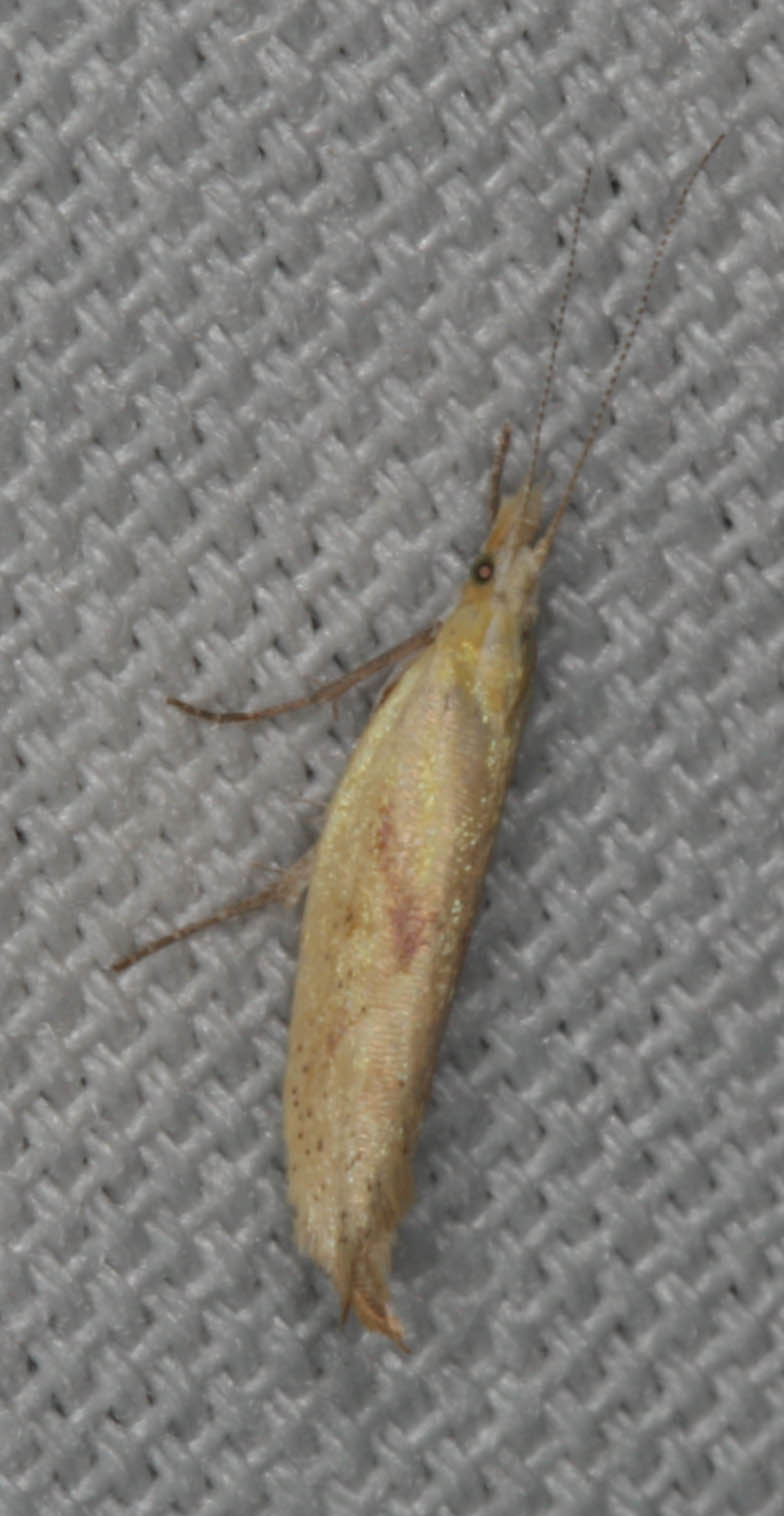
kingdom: Animalia
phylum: Arthropoda
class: Insecta
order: Lepidoptera
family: Ypsolophidae
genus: Ypsolopha
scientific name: Ypsolopha canariella
